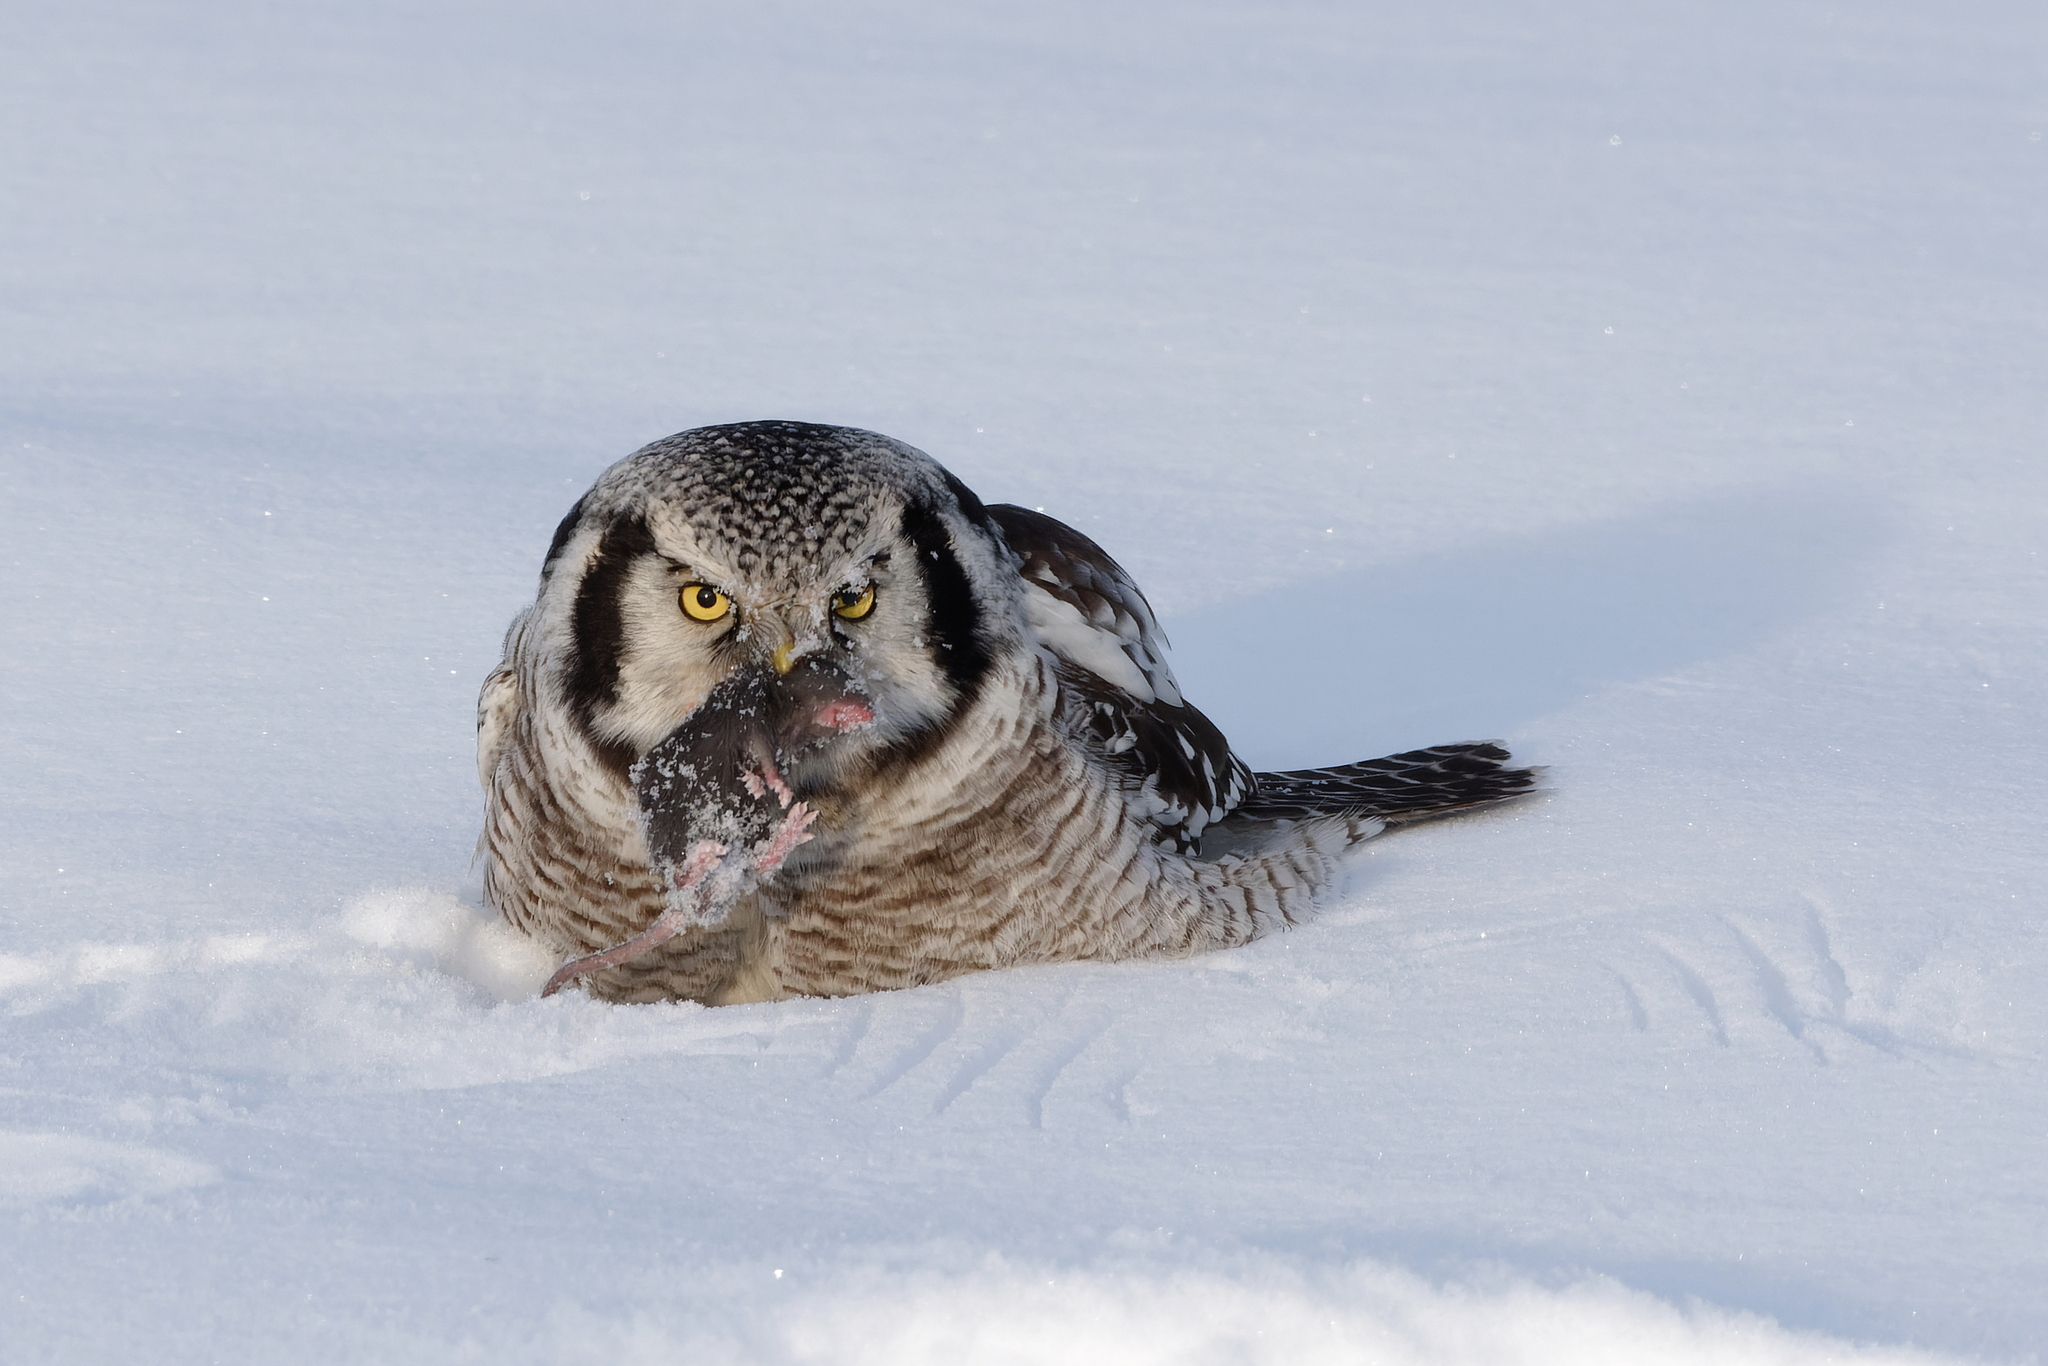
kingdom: Animalia
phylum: Chordata
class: Aves
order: Strigiformes
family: Strigidae
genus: Surnia
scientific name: Surnia ulula
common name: Northern hawk-owl
